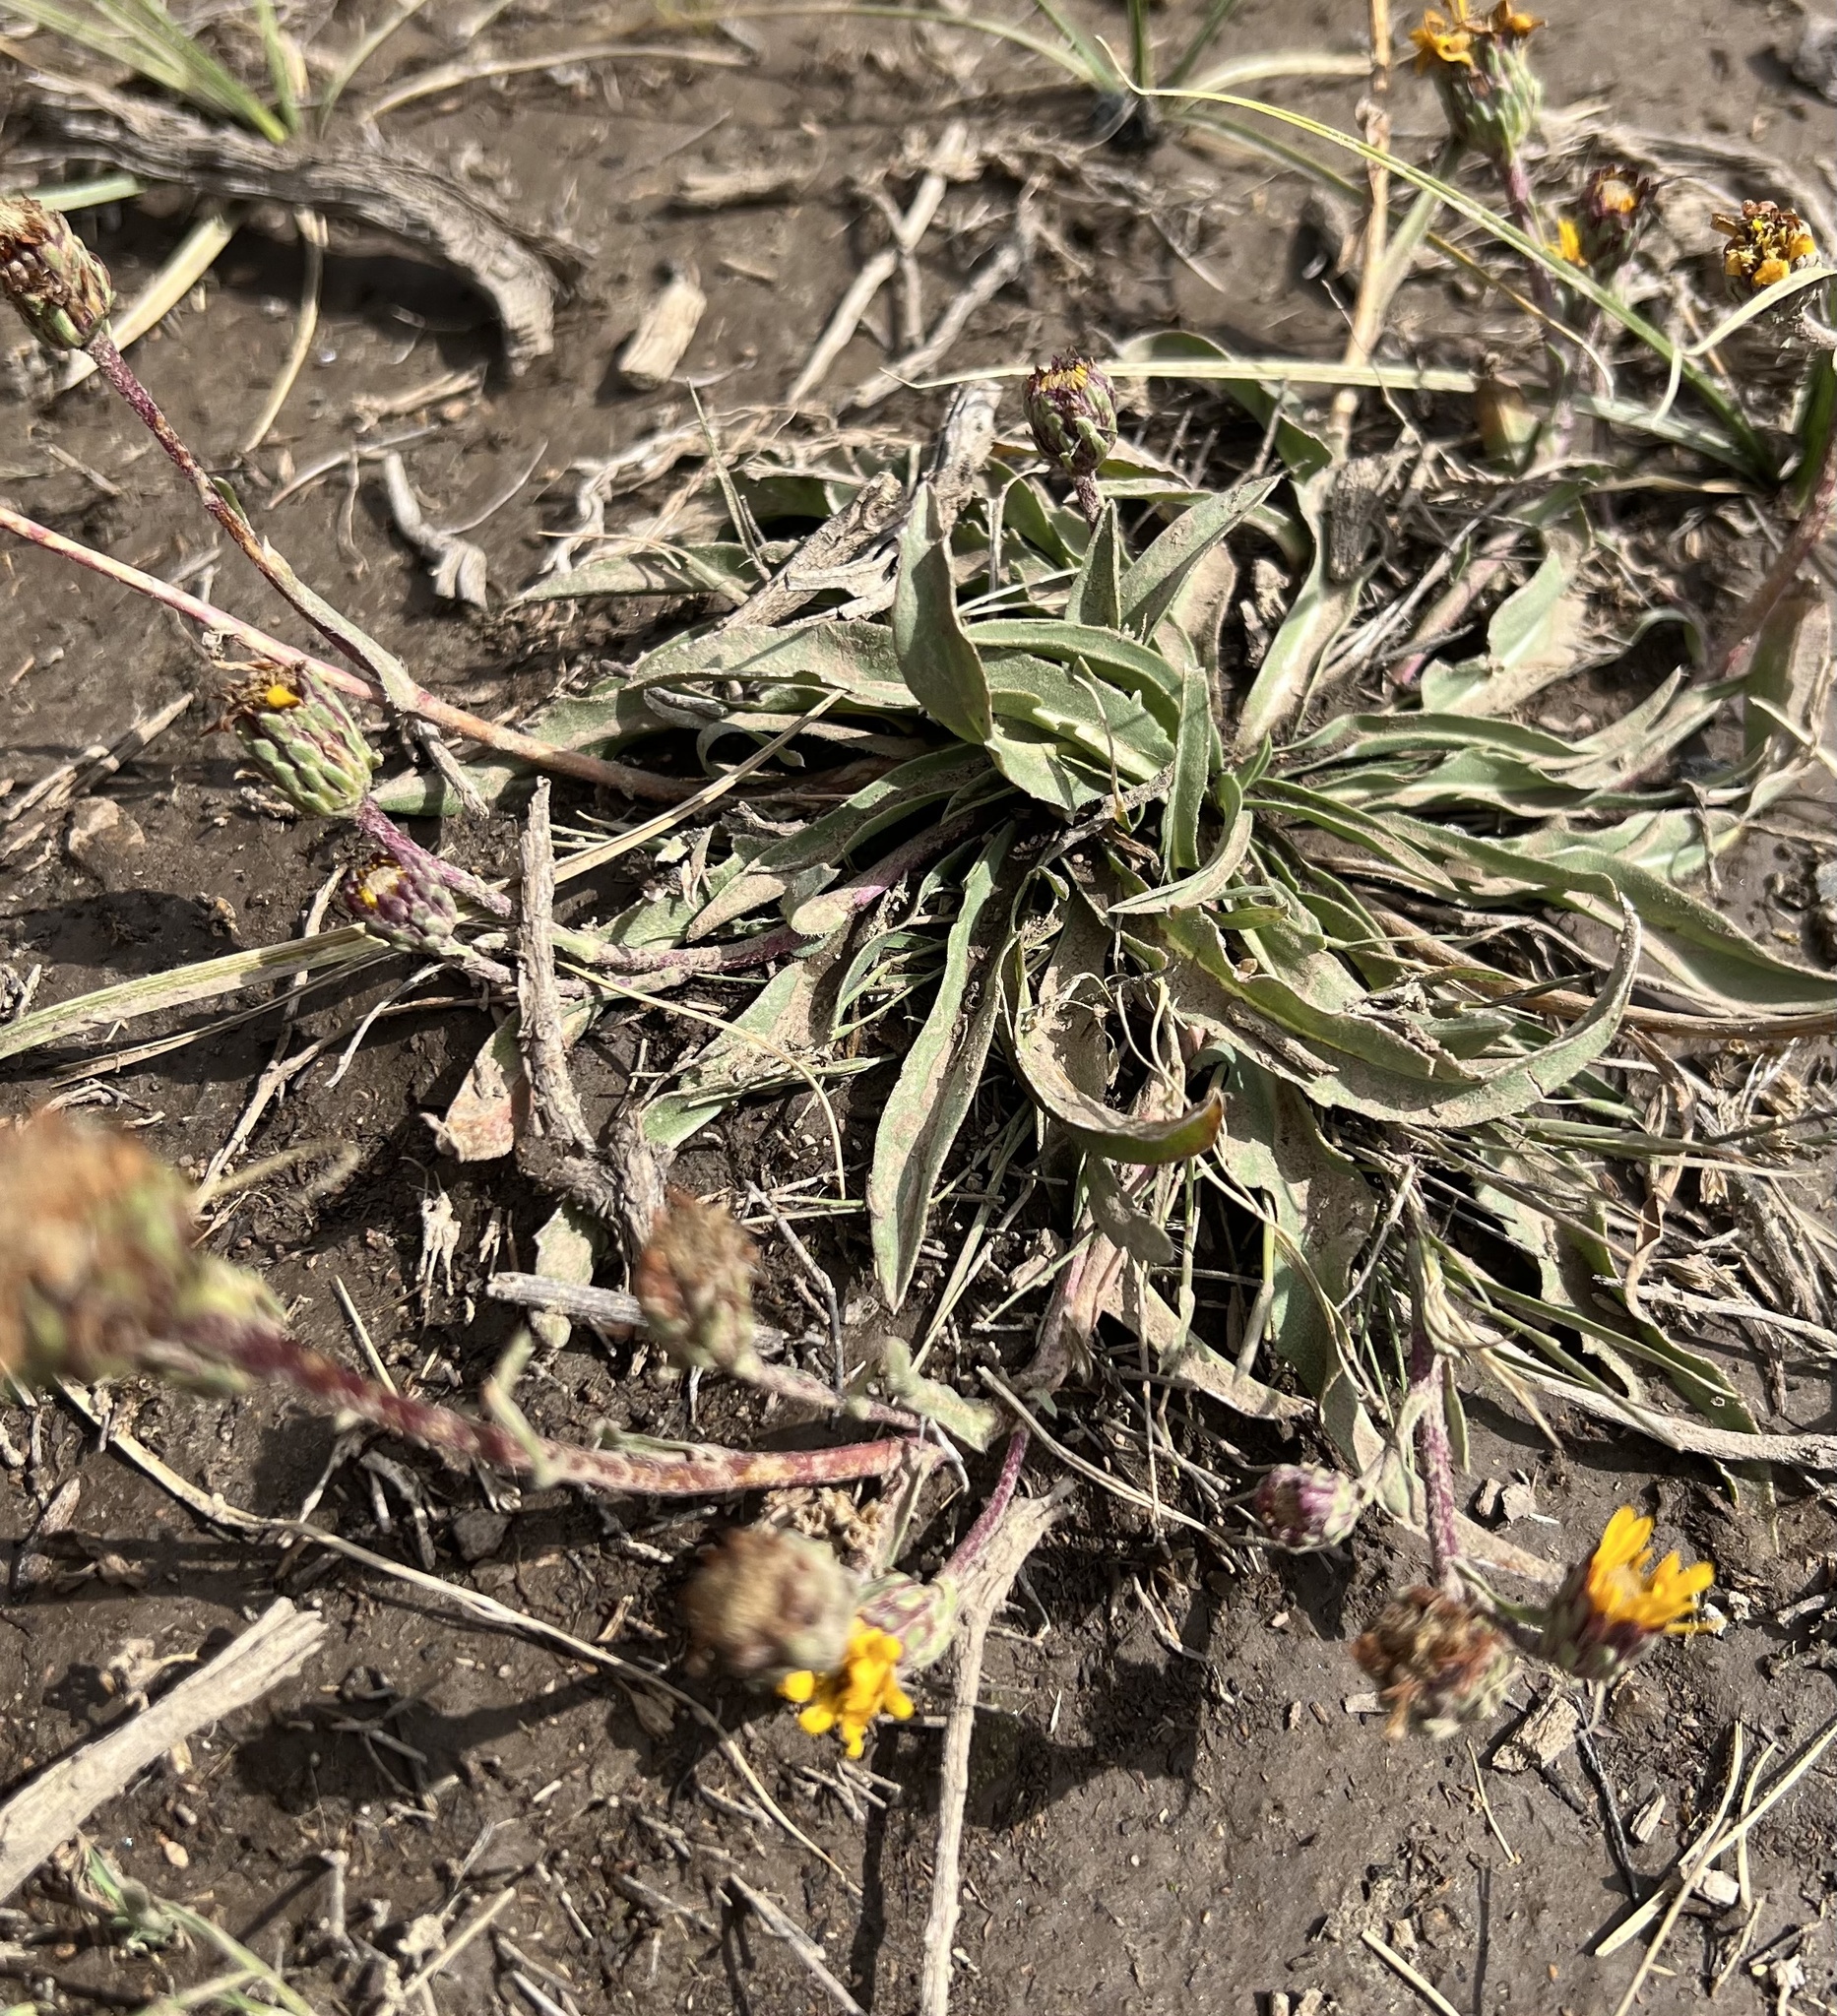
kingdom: Plantae
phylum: Tracheophyta
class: Magnoliopsida
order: Asterales
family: Asteraceae
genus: Pyrrocoma
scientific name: Pyrrocoma apargioides
